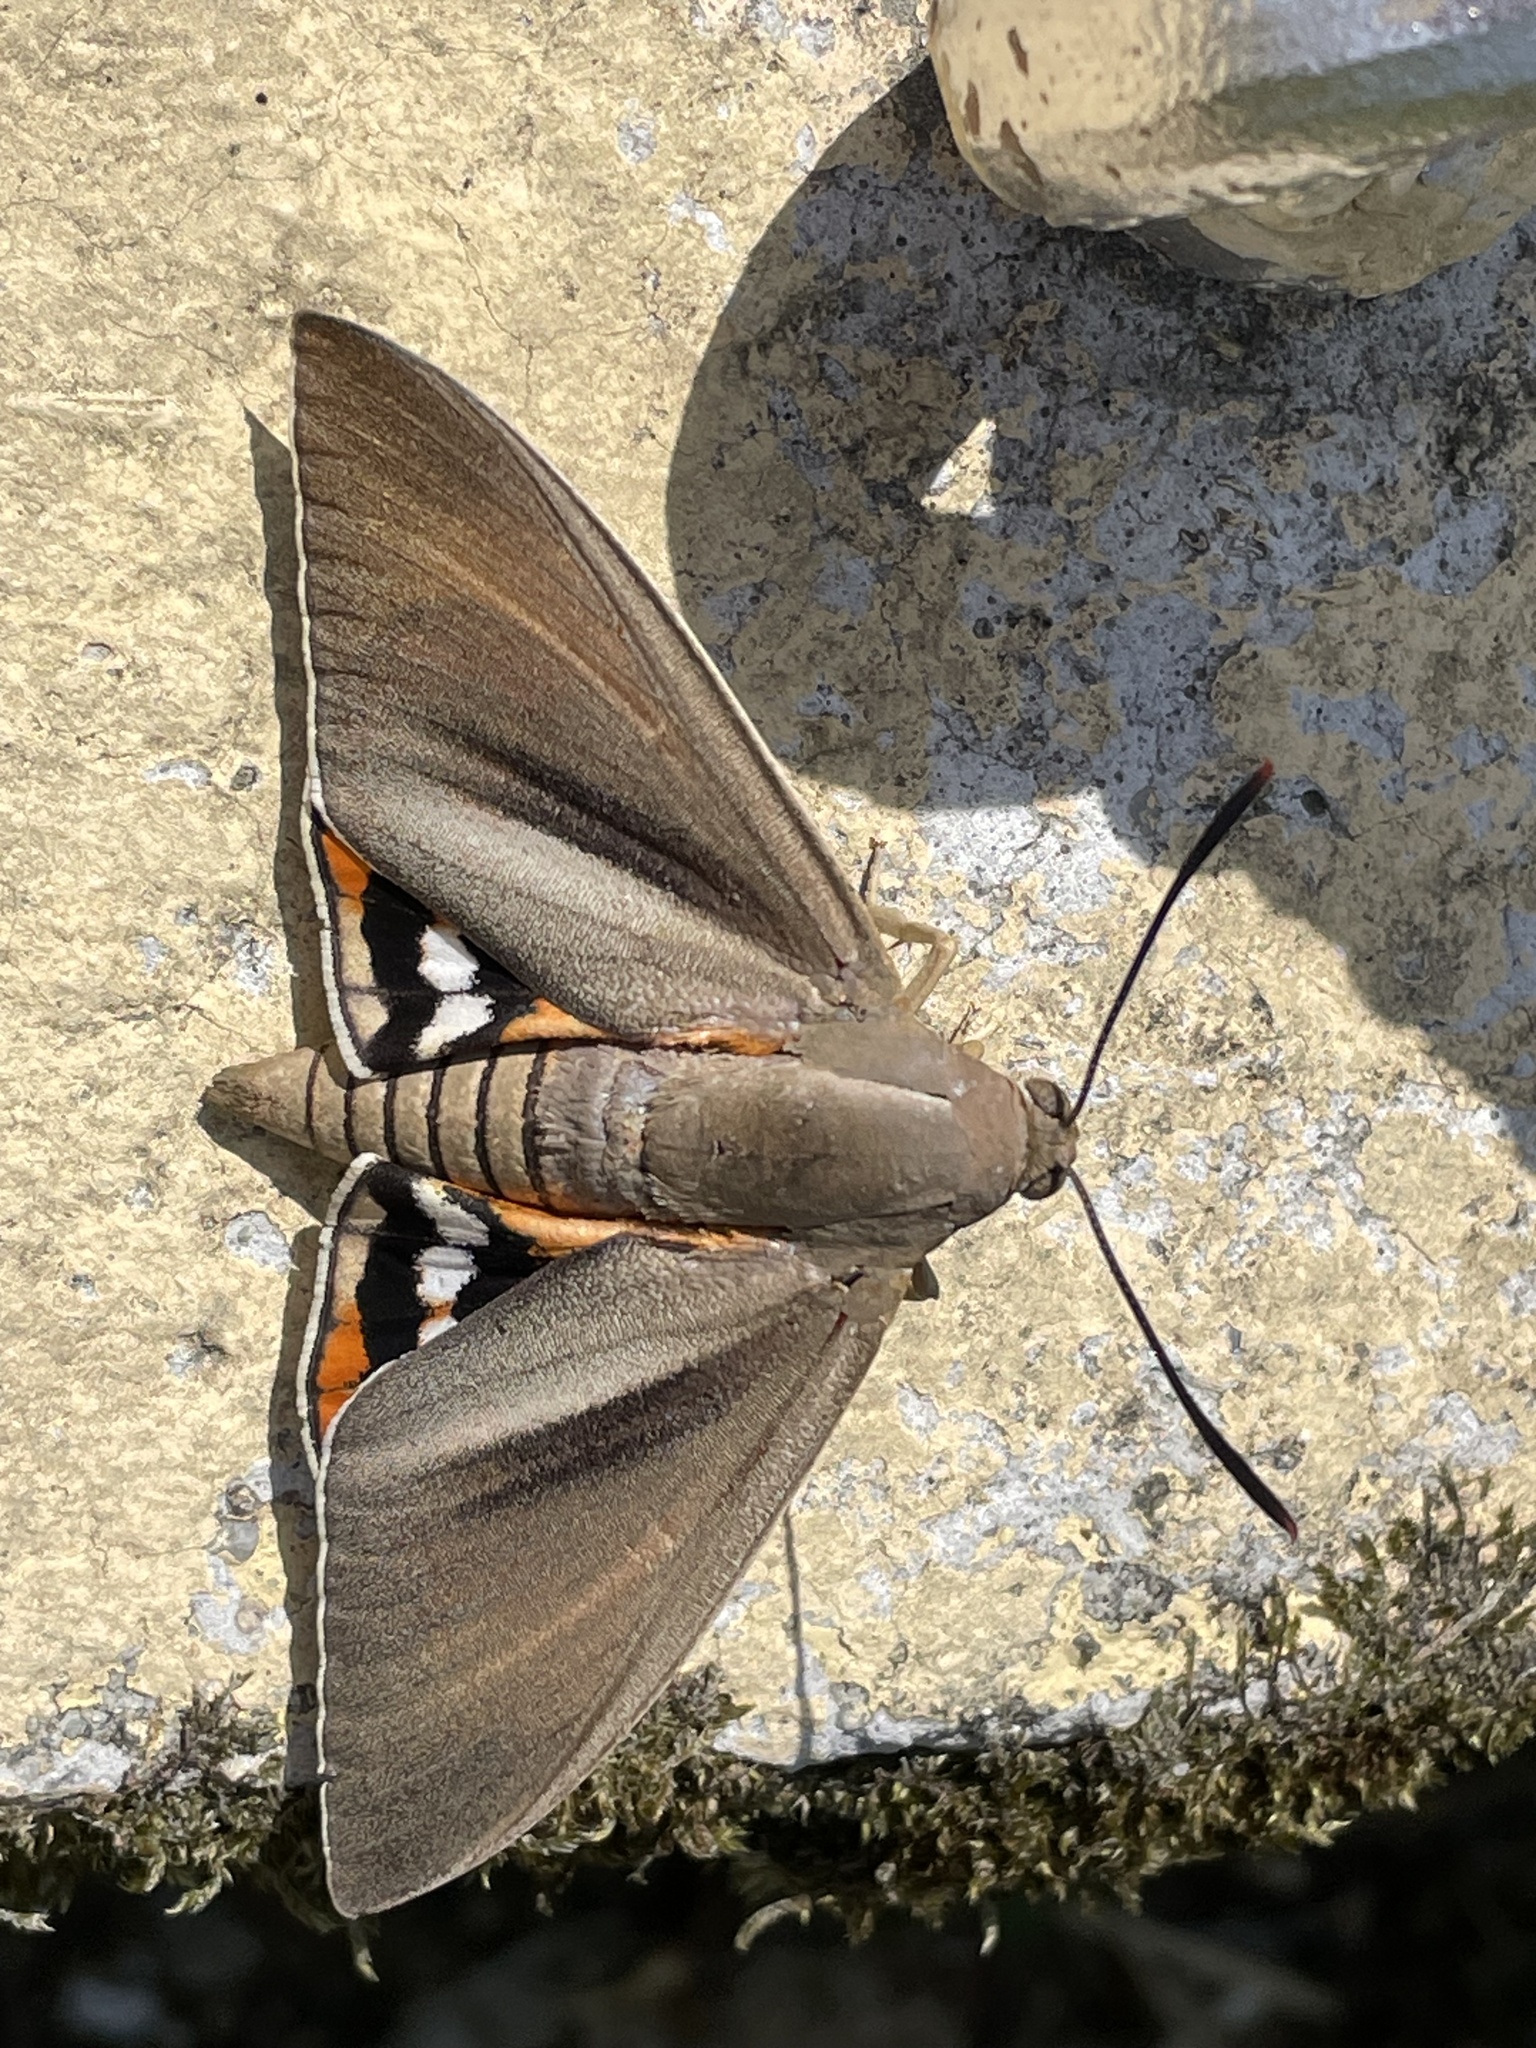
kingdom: Animalia
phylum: Arthropoda
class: Insecta
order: Lepidoptera
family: Castniidae
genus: Paysandisia
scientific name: Paysandisia archon
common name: Palm moth
